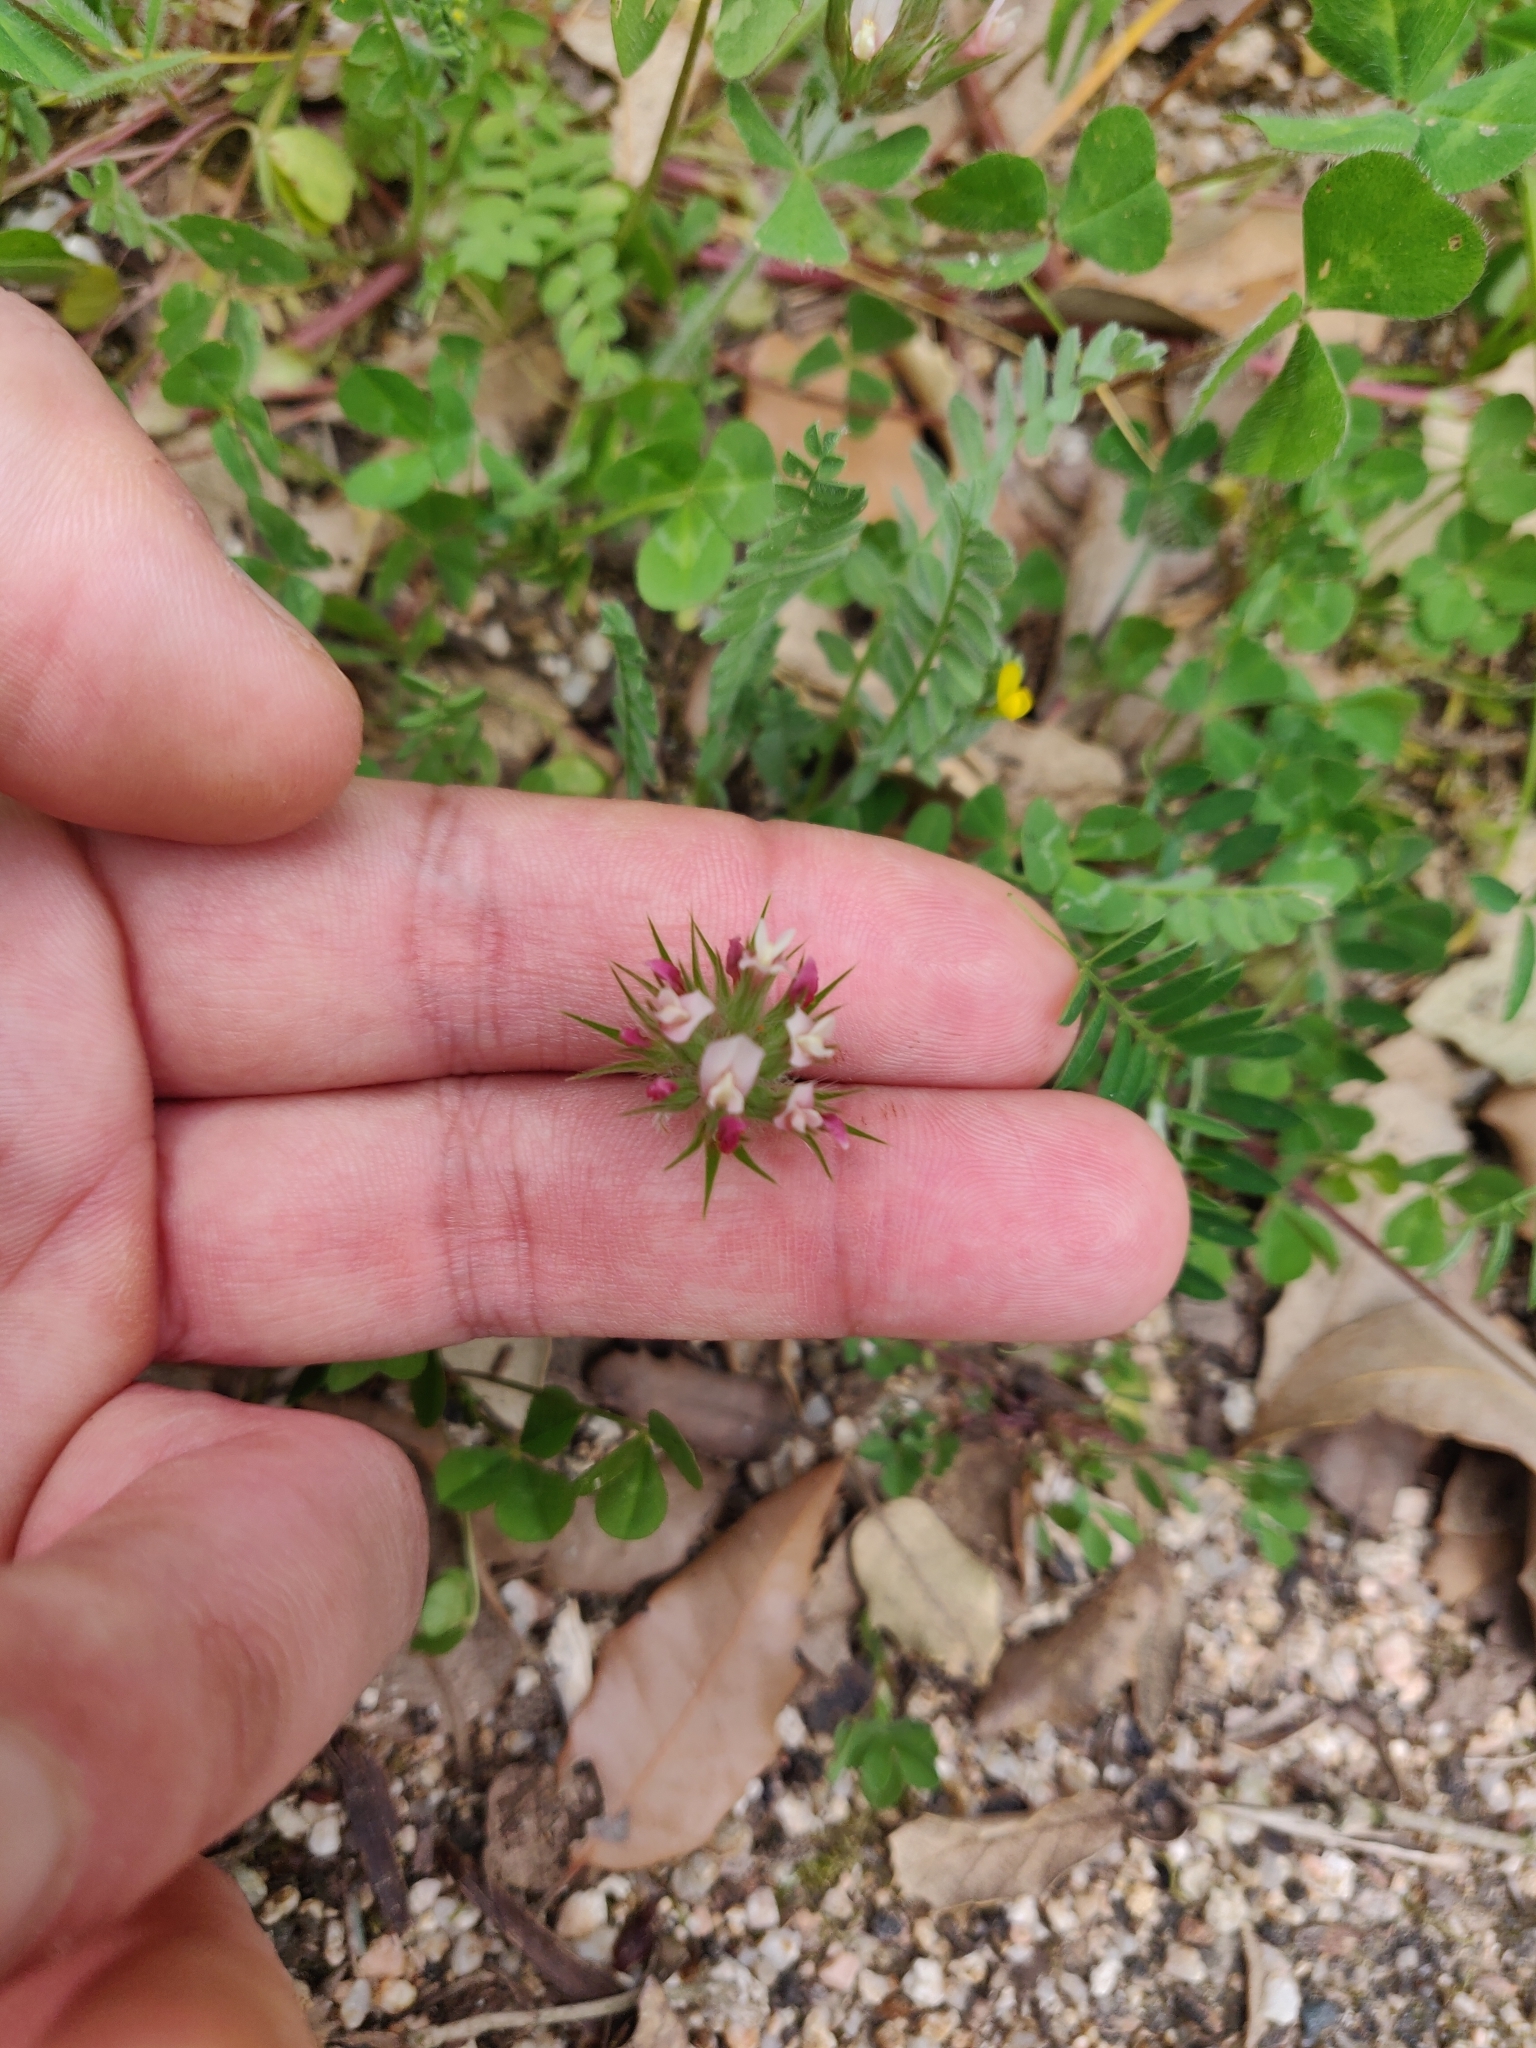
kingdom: Plantae
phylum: Tracheophyta
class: Magnoliopsida
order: Fabales
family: Fabaceae
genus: Trifolium
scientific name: Trifolium stellatum
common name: Starry clover
